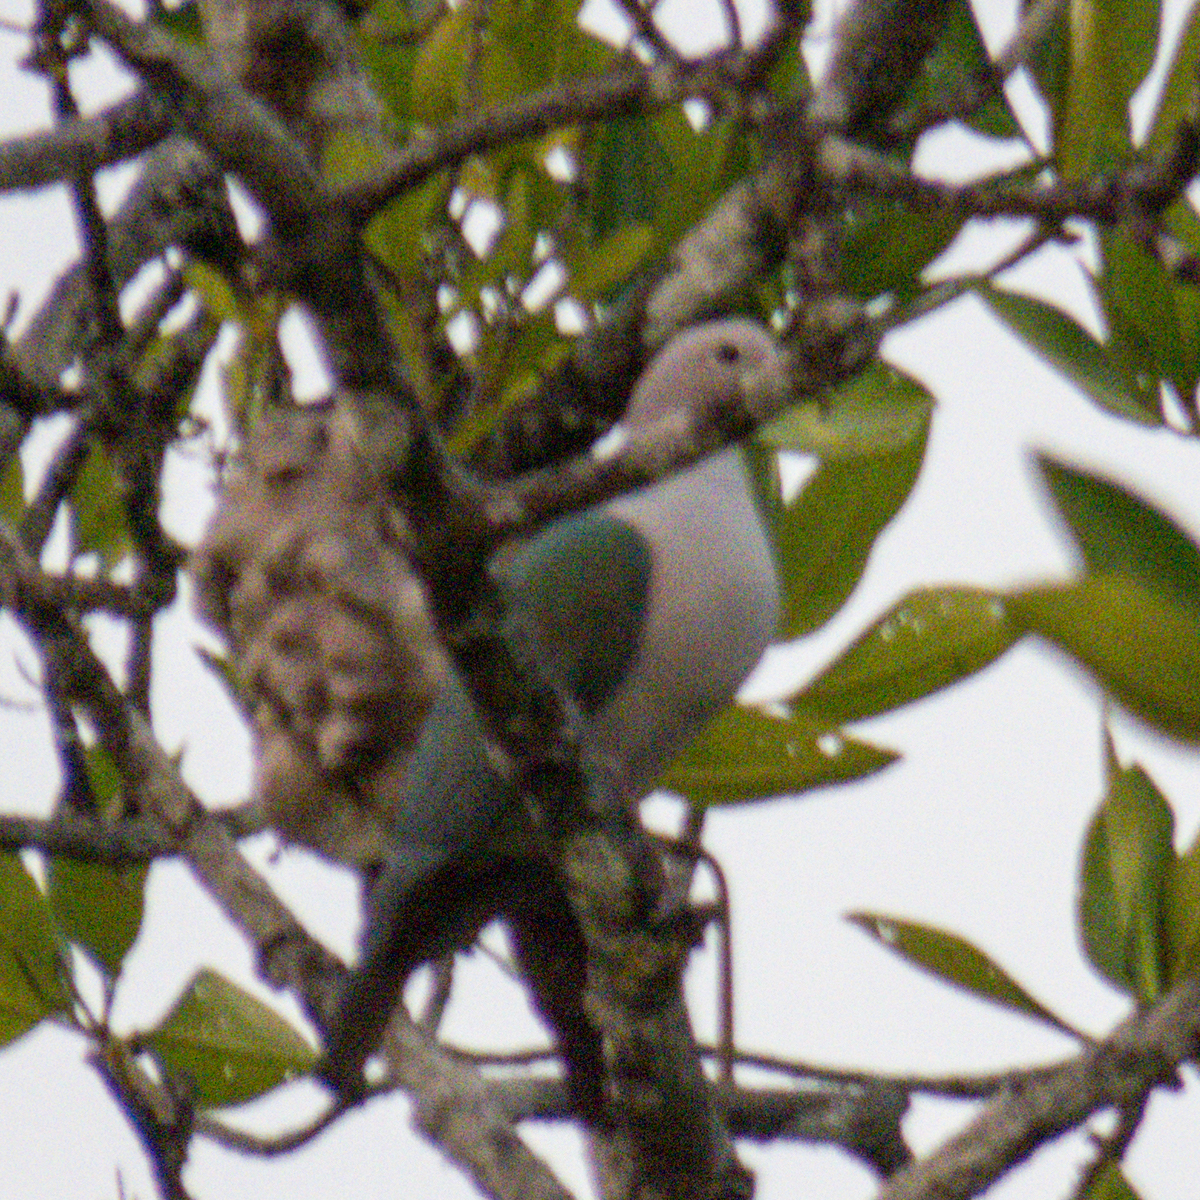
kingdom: Animalia
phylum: Chordata
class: Aves
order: Columbiformes
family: Columbidae
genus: Ducula
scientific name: Ducula aenea
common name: Green imperial pigeon
